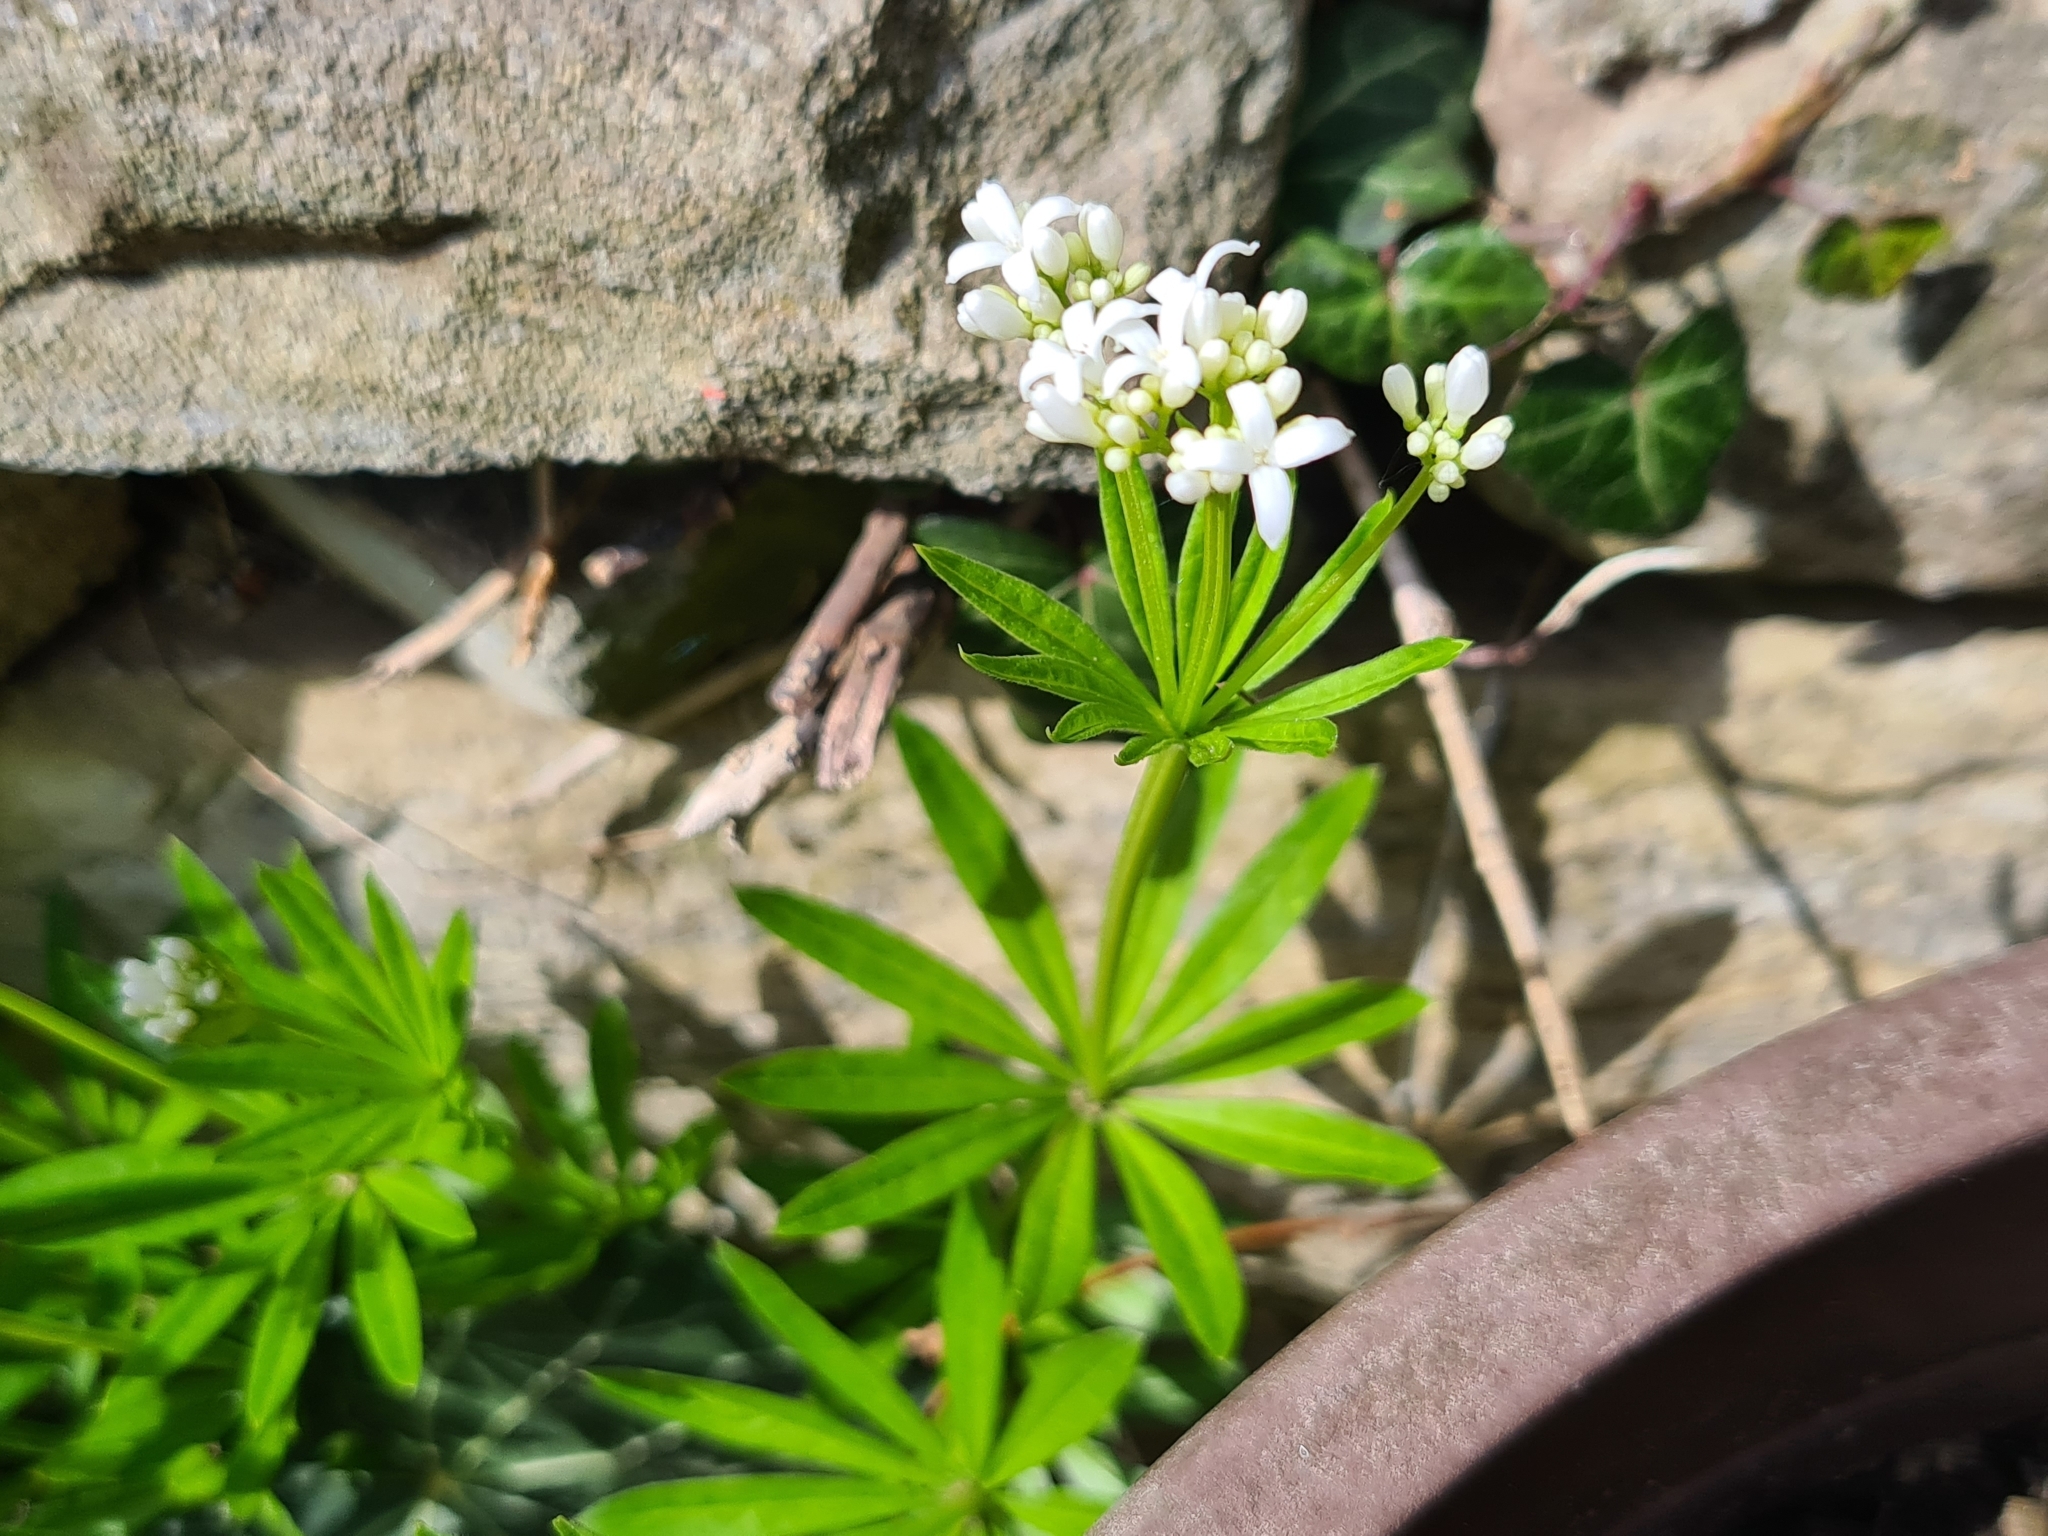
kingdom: Plantae
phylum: Tracheophyta
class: Magnoliopsida
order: Gentianales
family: Rubiaceae
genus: Galium
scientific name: Galium odoratum
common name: Sweet woodruff
